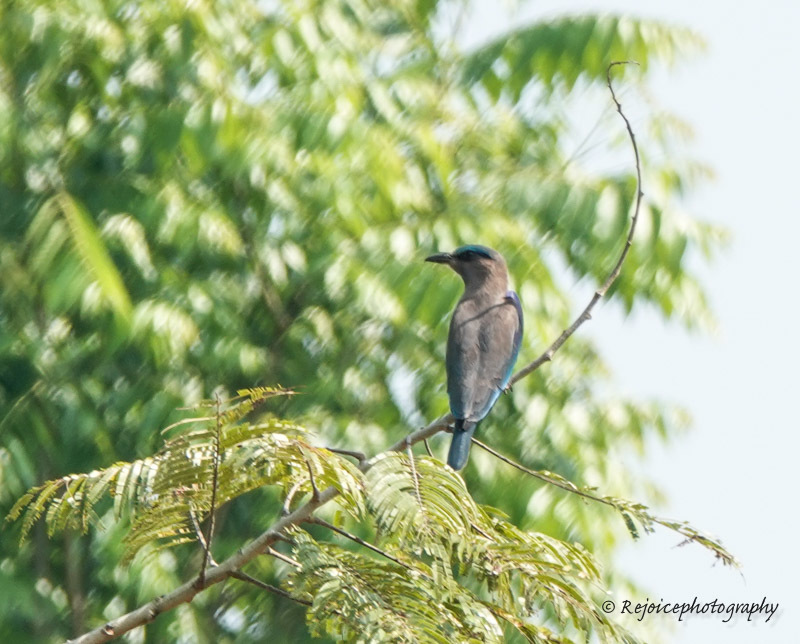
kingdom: Animalia
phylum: Chordata
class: Aves
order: Coraciiformes
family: Coraciidae
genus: Coracias
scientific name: Coracias affinis
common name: Indochinese roller
